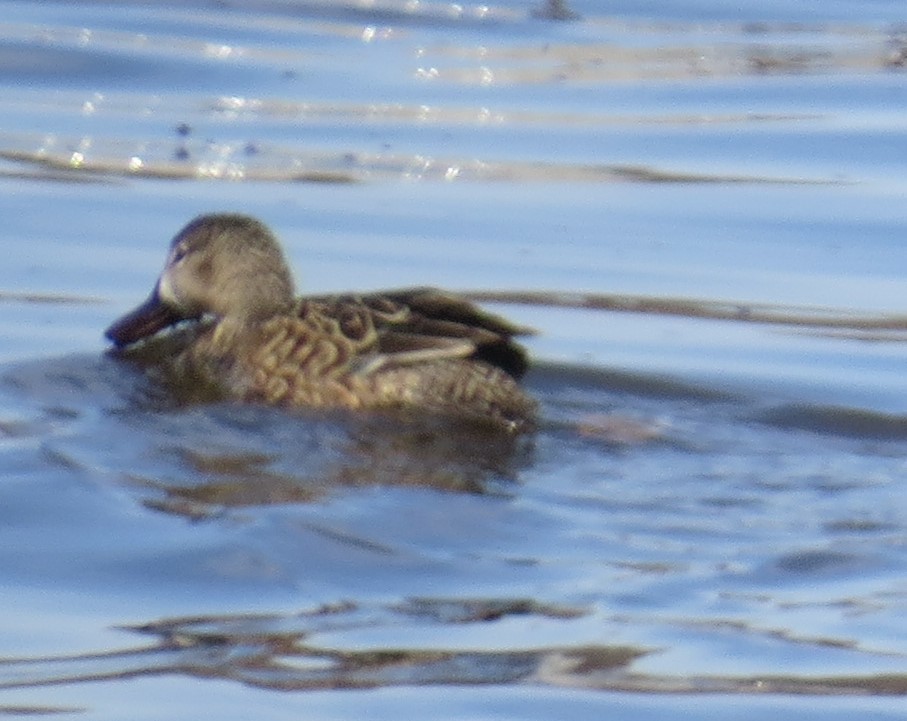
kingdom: Animalia
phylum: Chordata
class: Aves
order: Anseriformes
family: Anatidae
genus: Spatula
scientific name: Spatula discors
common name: Blue-winged teal
